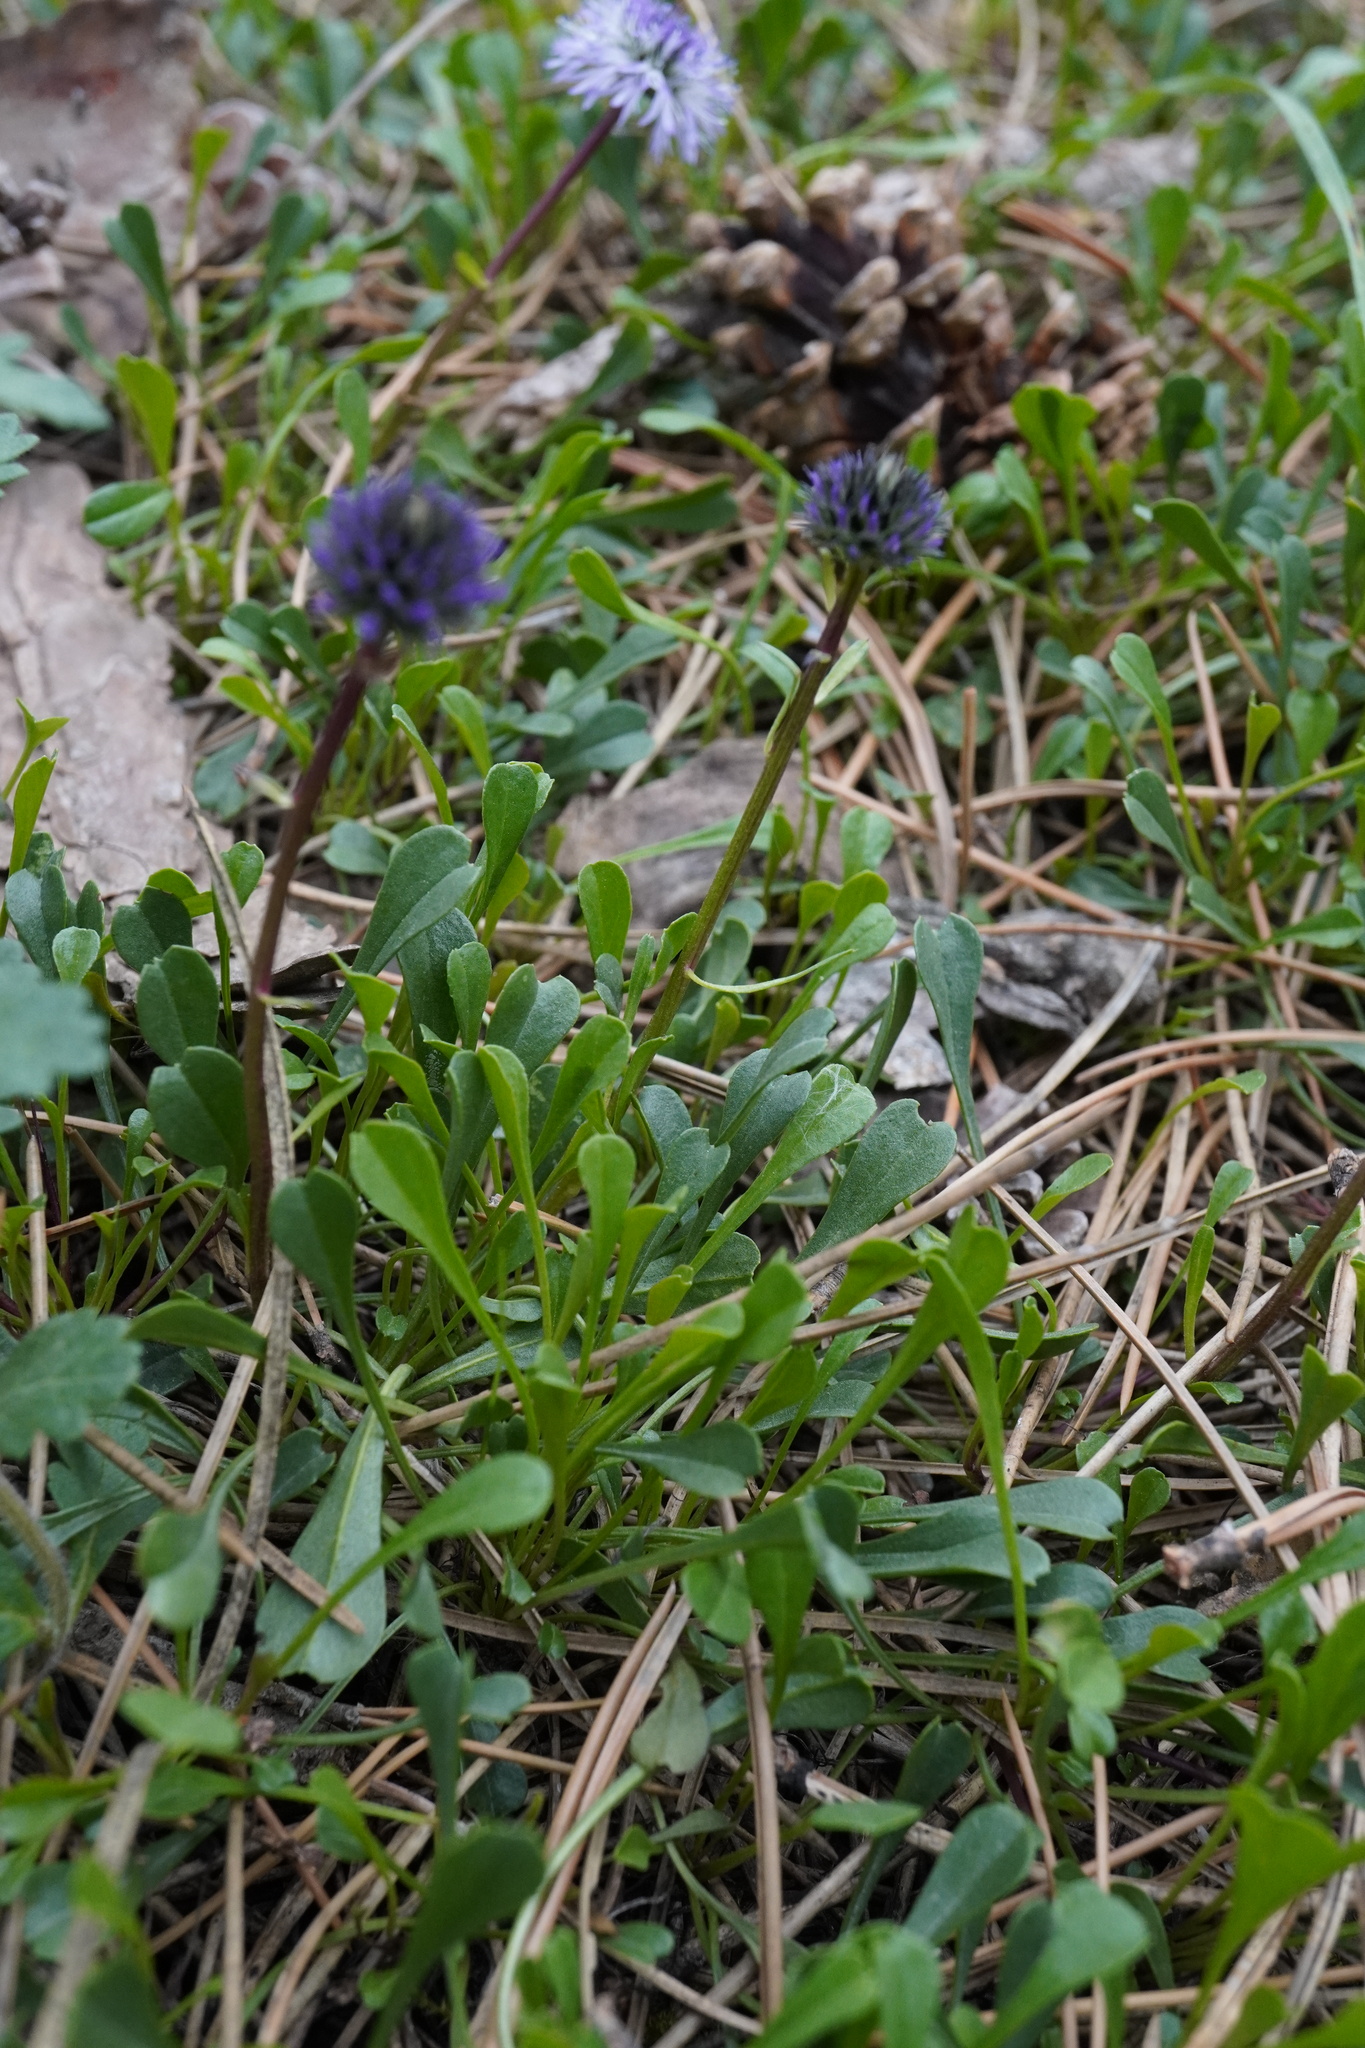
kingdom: Plantae
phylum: Tracheophyta
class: Magnoliopsida
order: Lamiales
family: Plantaginaceae
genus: Globularia
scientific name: Globularia cordifolia
